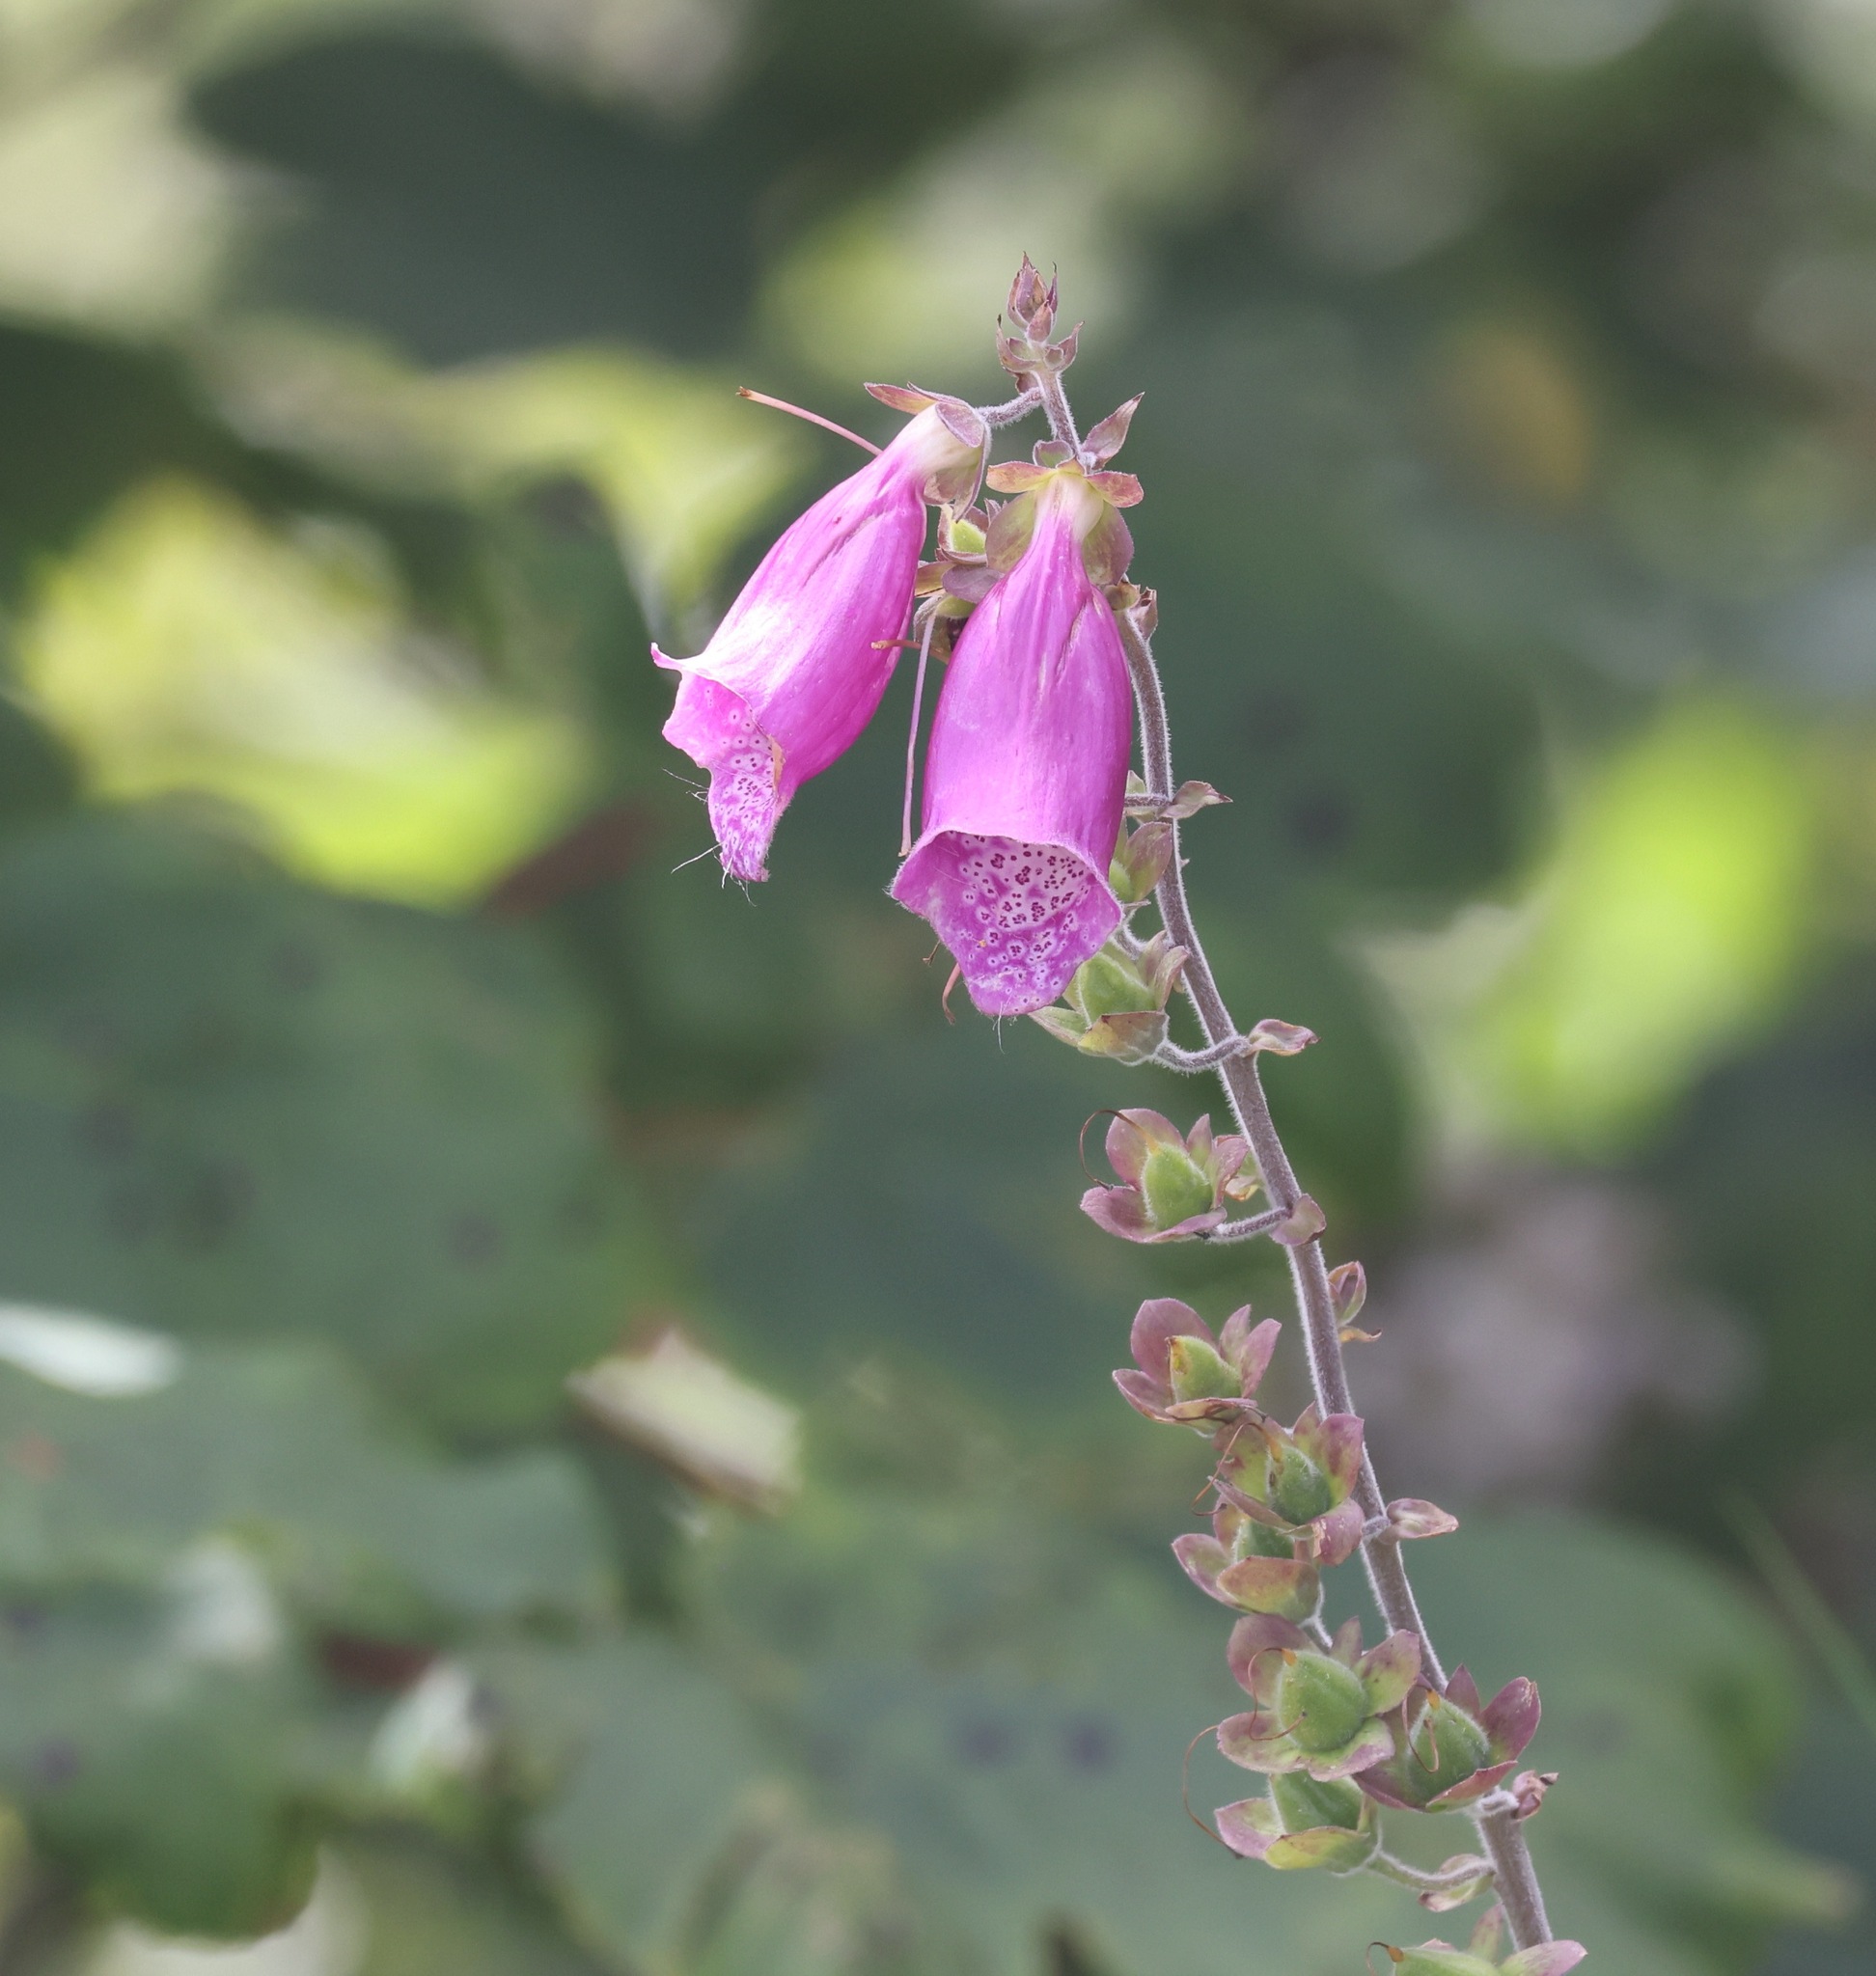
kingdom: Plantae
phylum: Tracheophyta
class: Magnoliopsida
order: Lamiales
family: Plantaginaceae
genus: Digitalis
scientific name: Digitalis purpurea
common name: Foxglove
